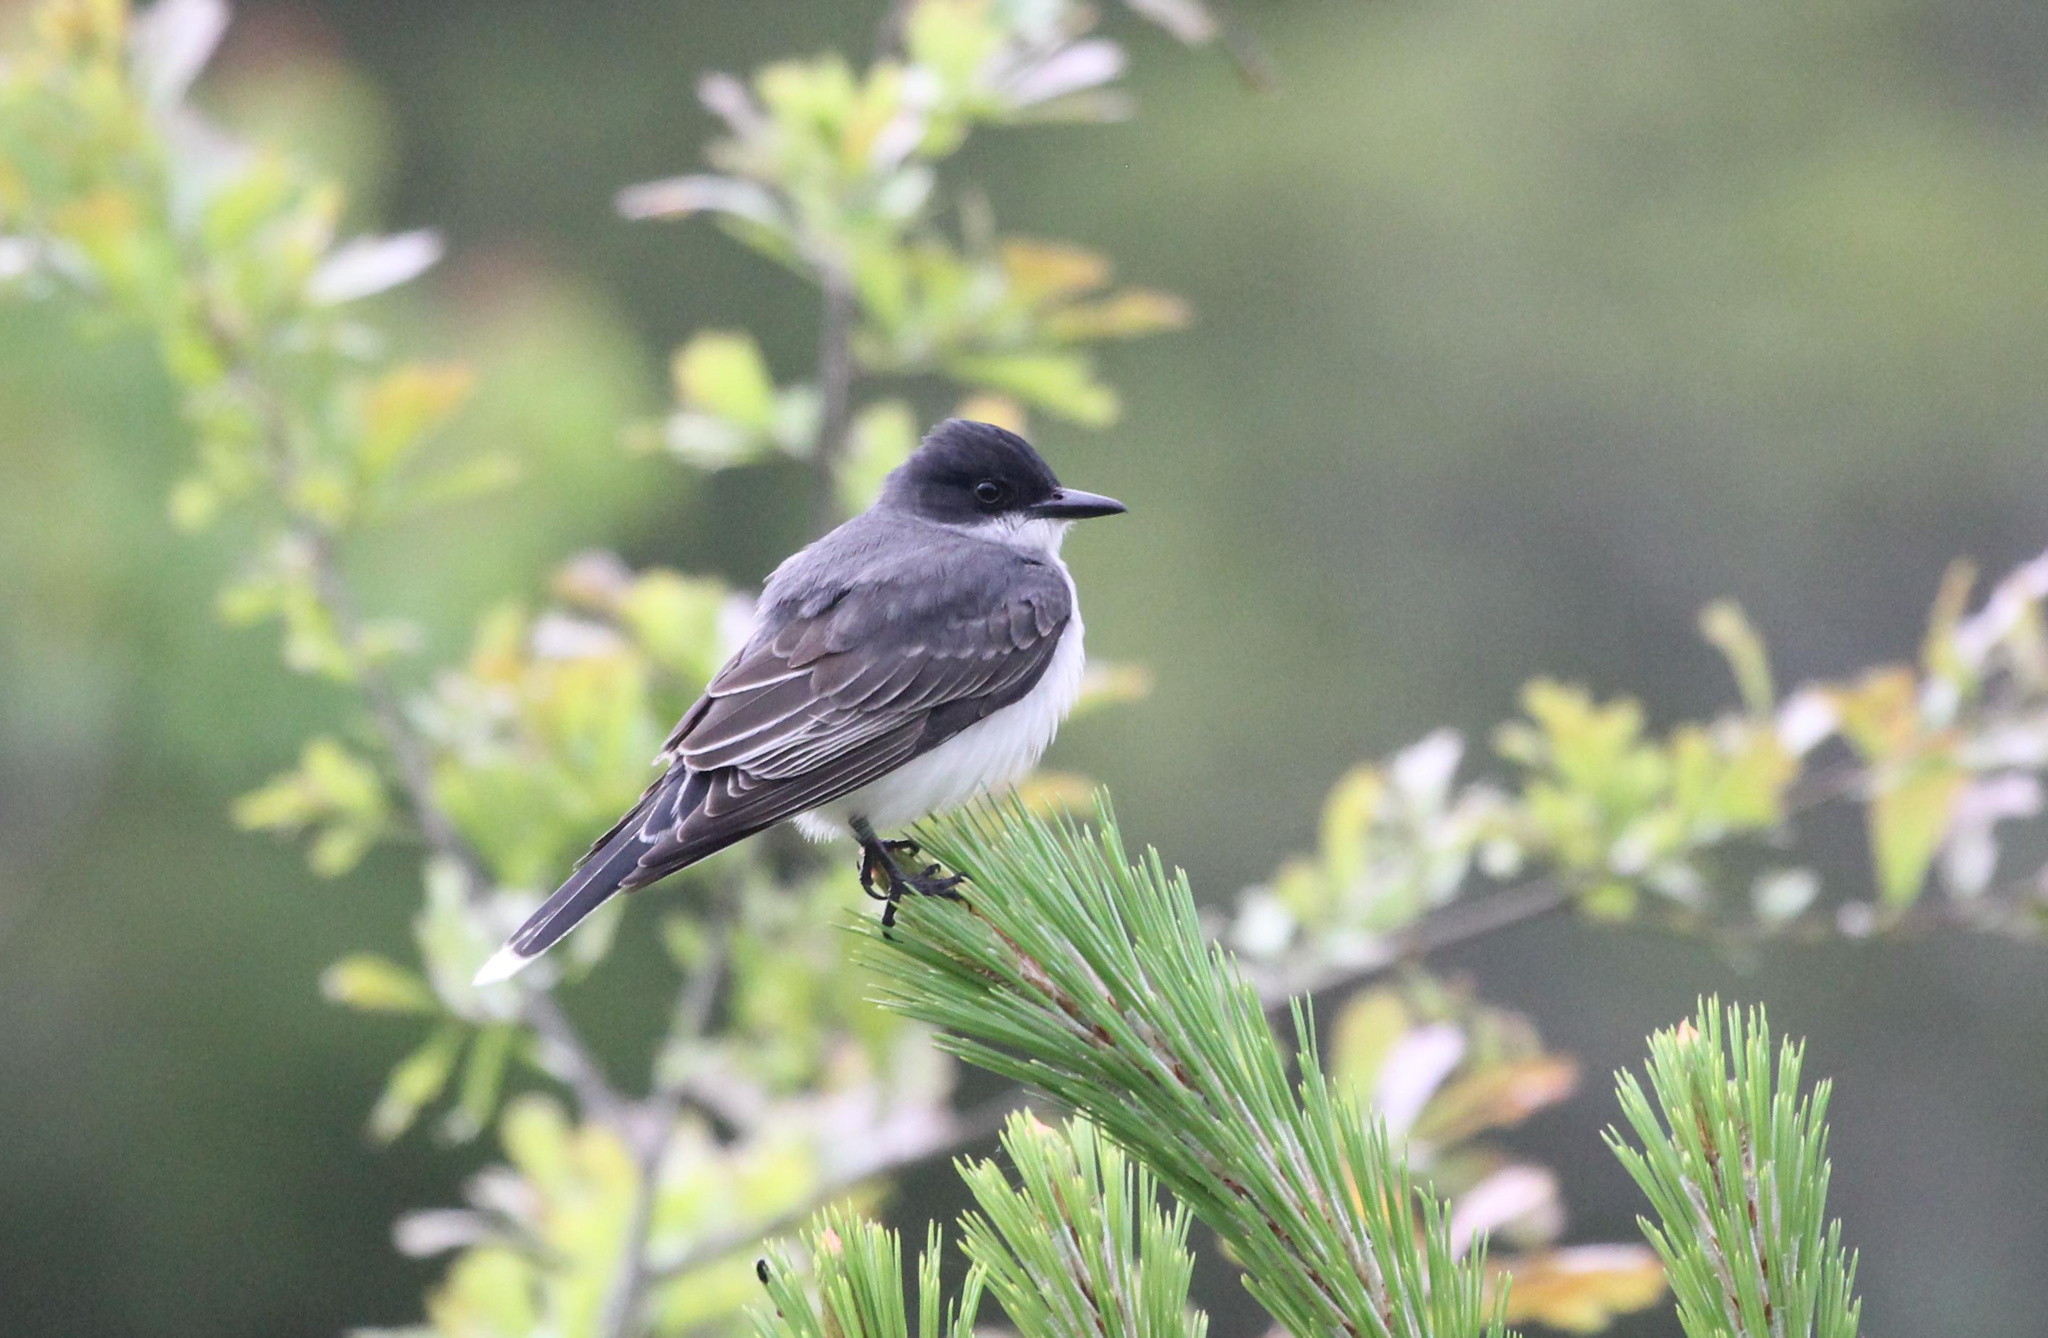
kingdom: Animalia
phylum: Chordata
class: Aves
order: Passeriformes
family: Tyrannidae
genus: Tyrannus
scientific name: Tyrannus tyrannus
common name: Eastern kingbird
